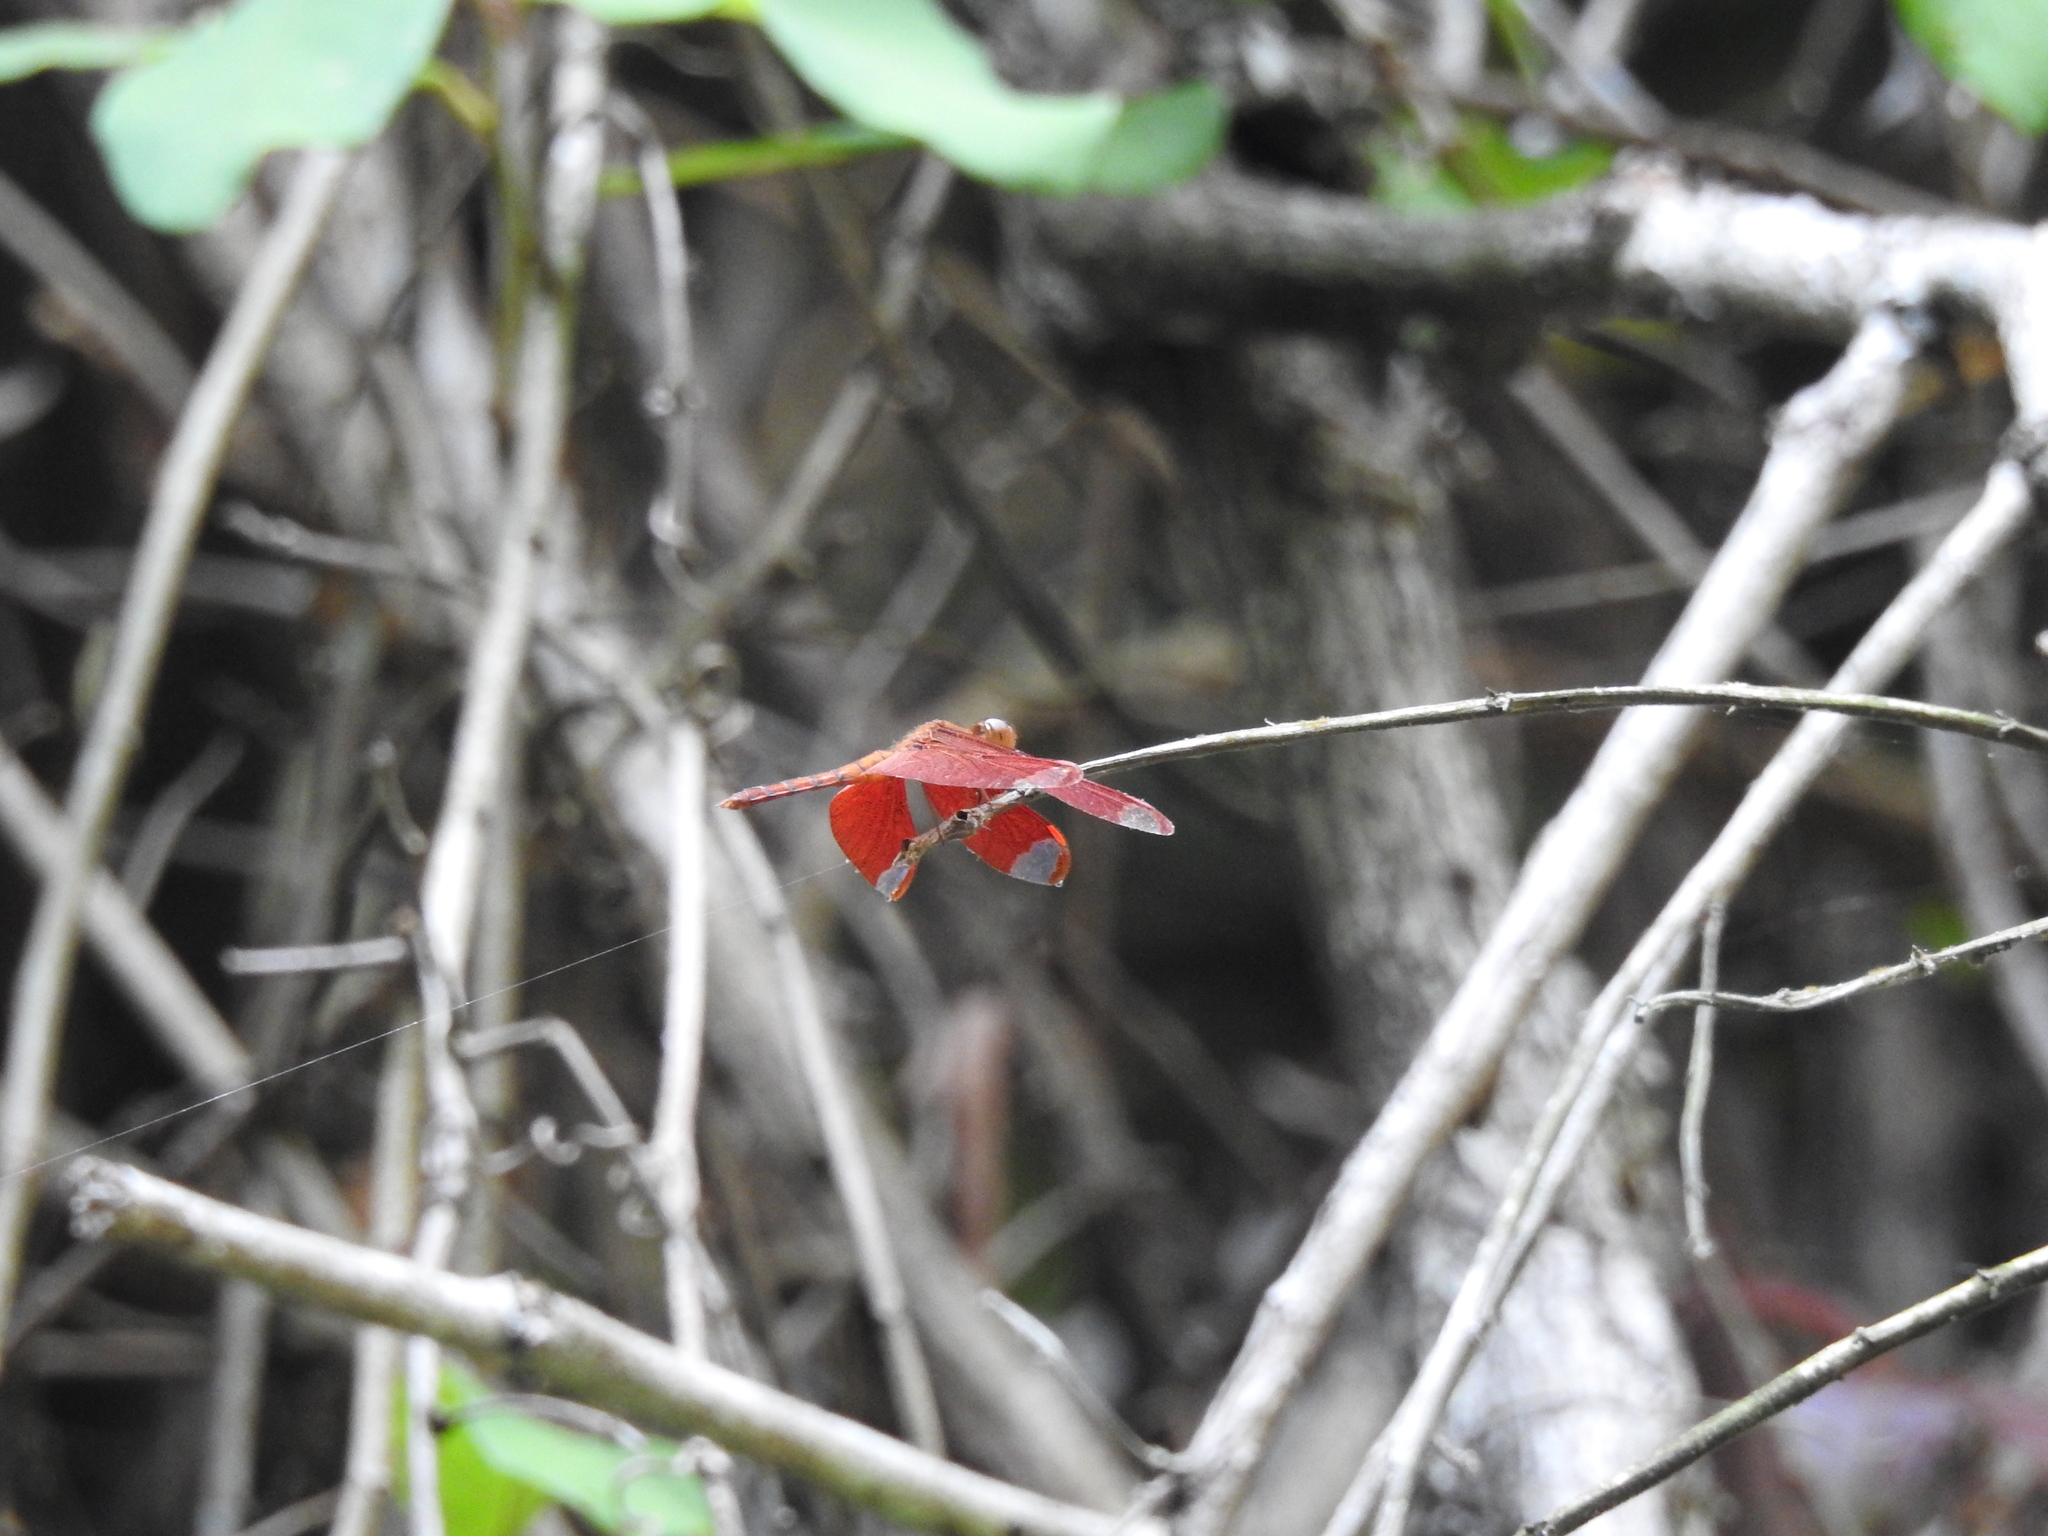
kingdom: Animalia
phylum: Arthropoda
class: Insecta
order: Odonata
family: Libellulidae
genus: Neurothemis
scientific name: Neurothemis fulvia
